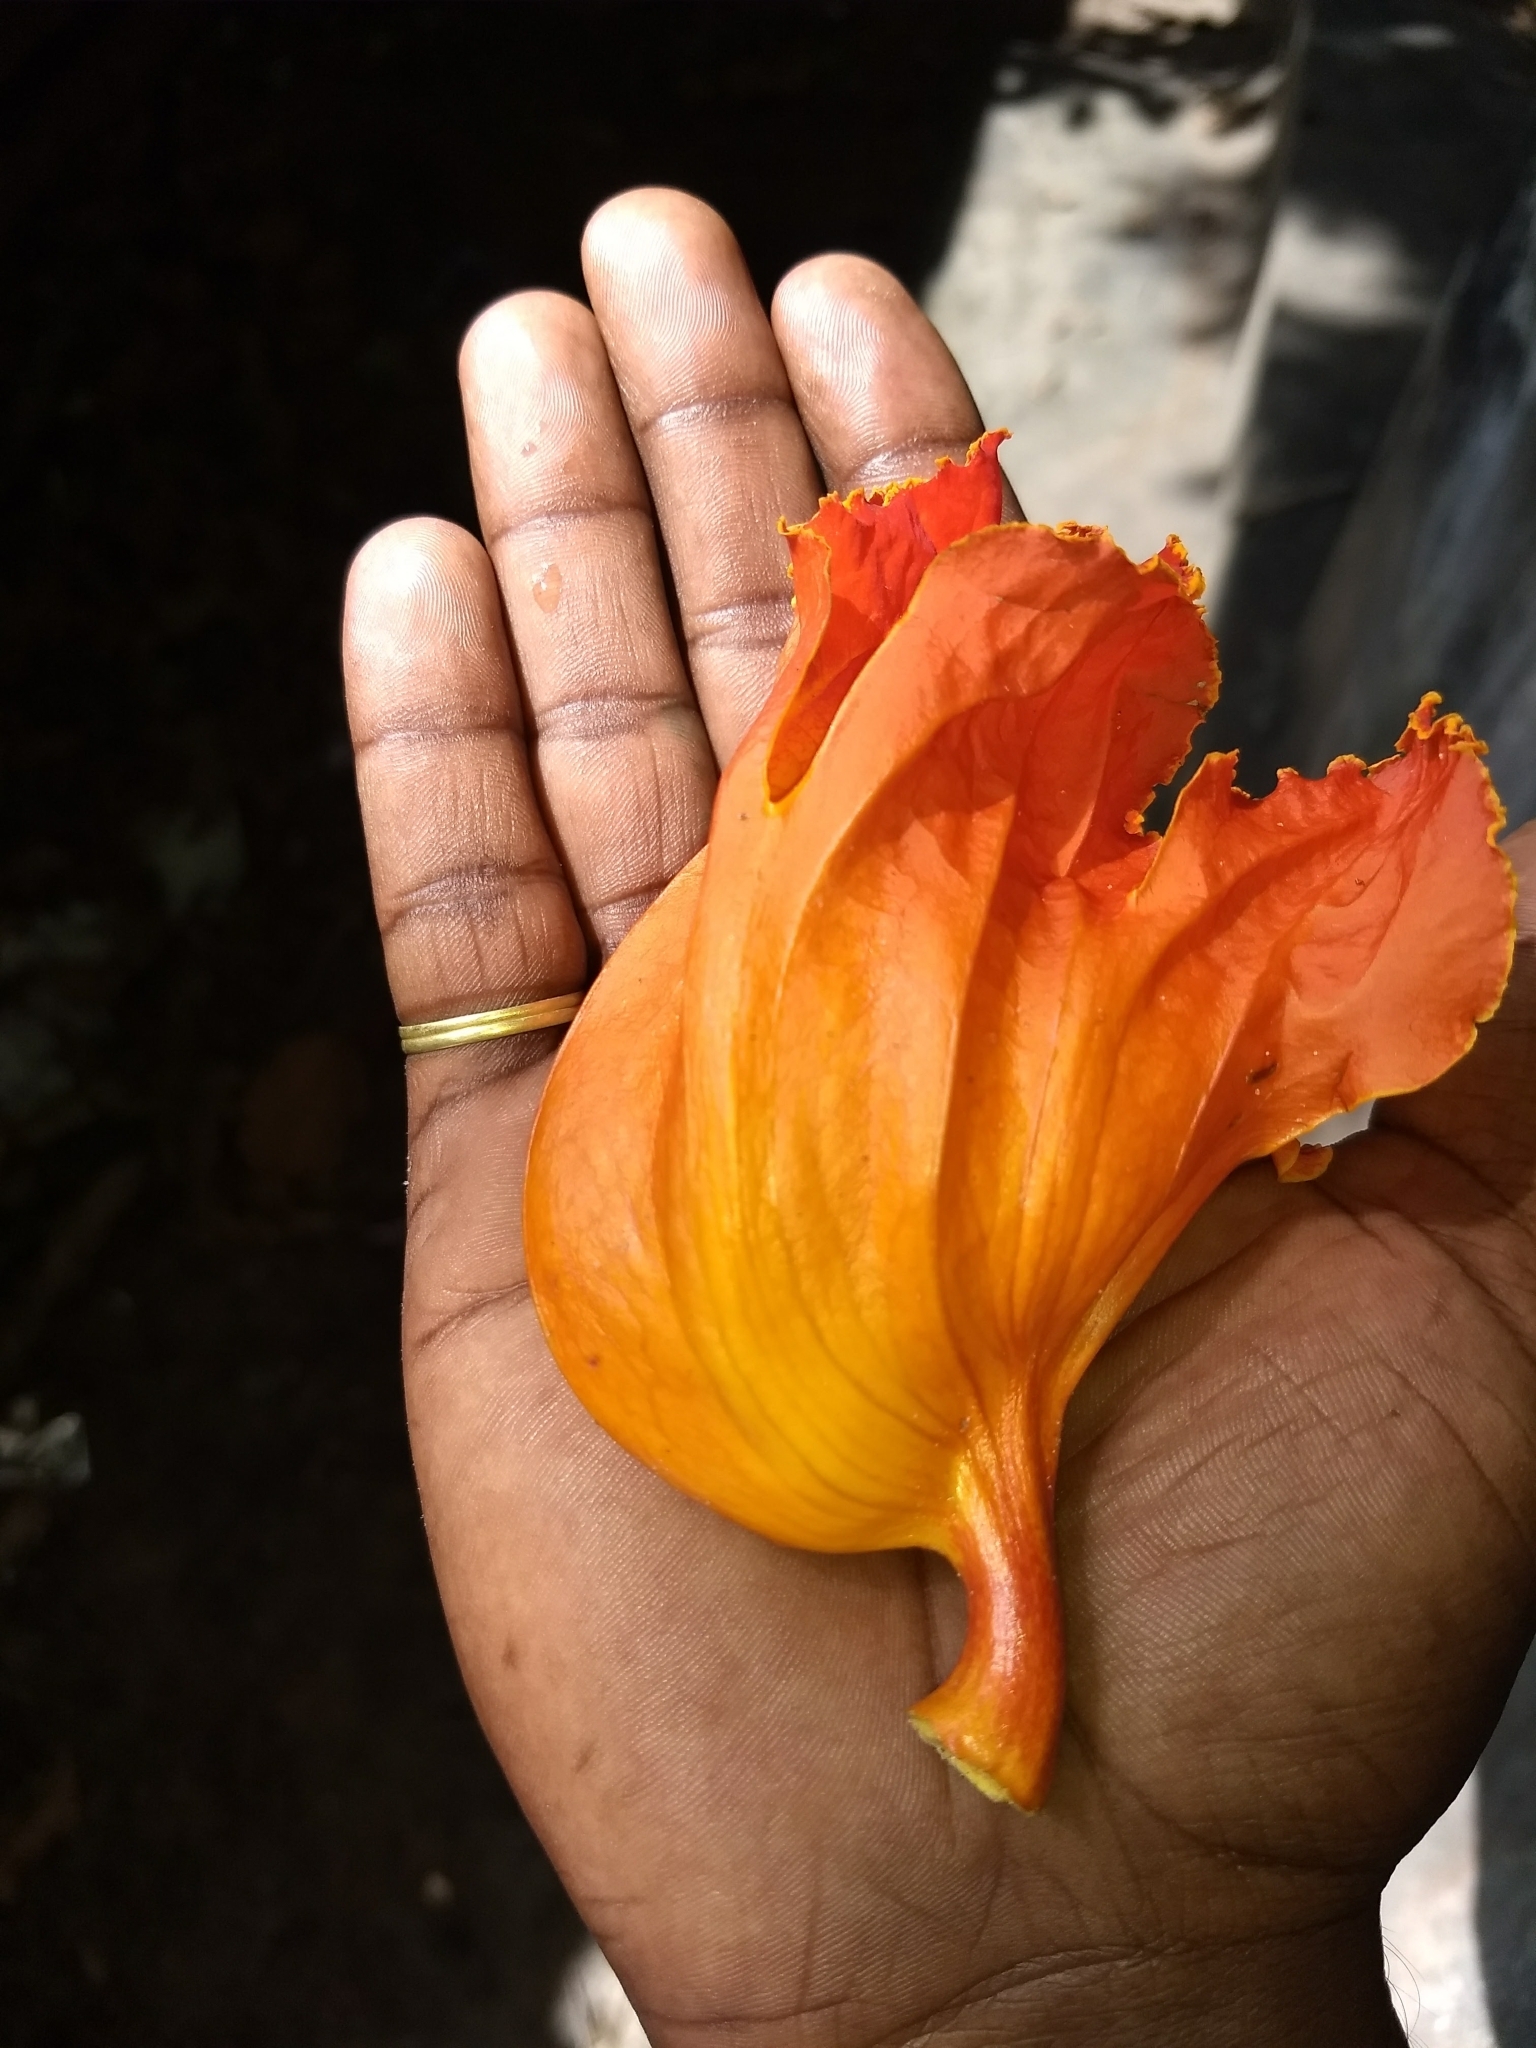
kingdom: Plantae
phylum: Tracheophyta
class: Magnoliopsida
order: Lamiales
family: Bignoniaceae
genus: Spathodea
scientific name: Spathodea campanulata
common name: African tuliptree
